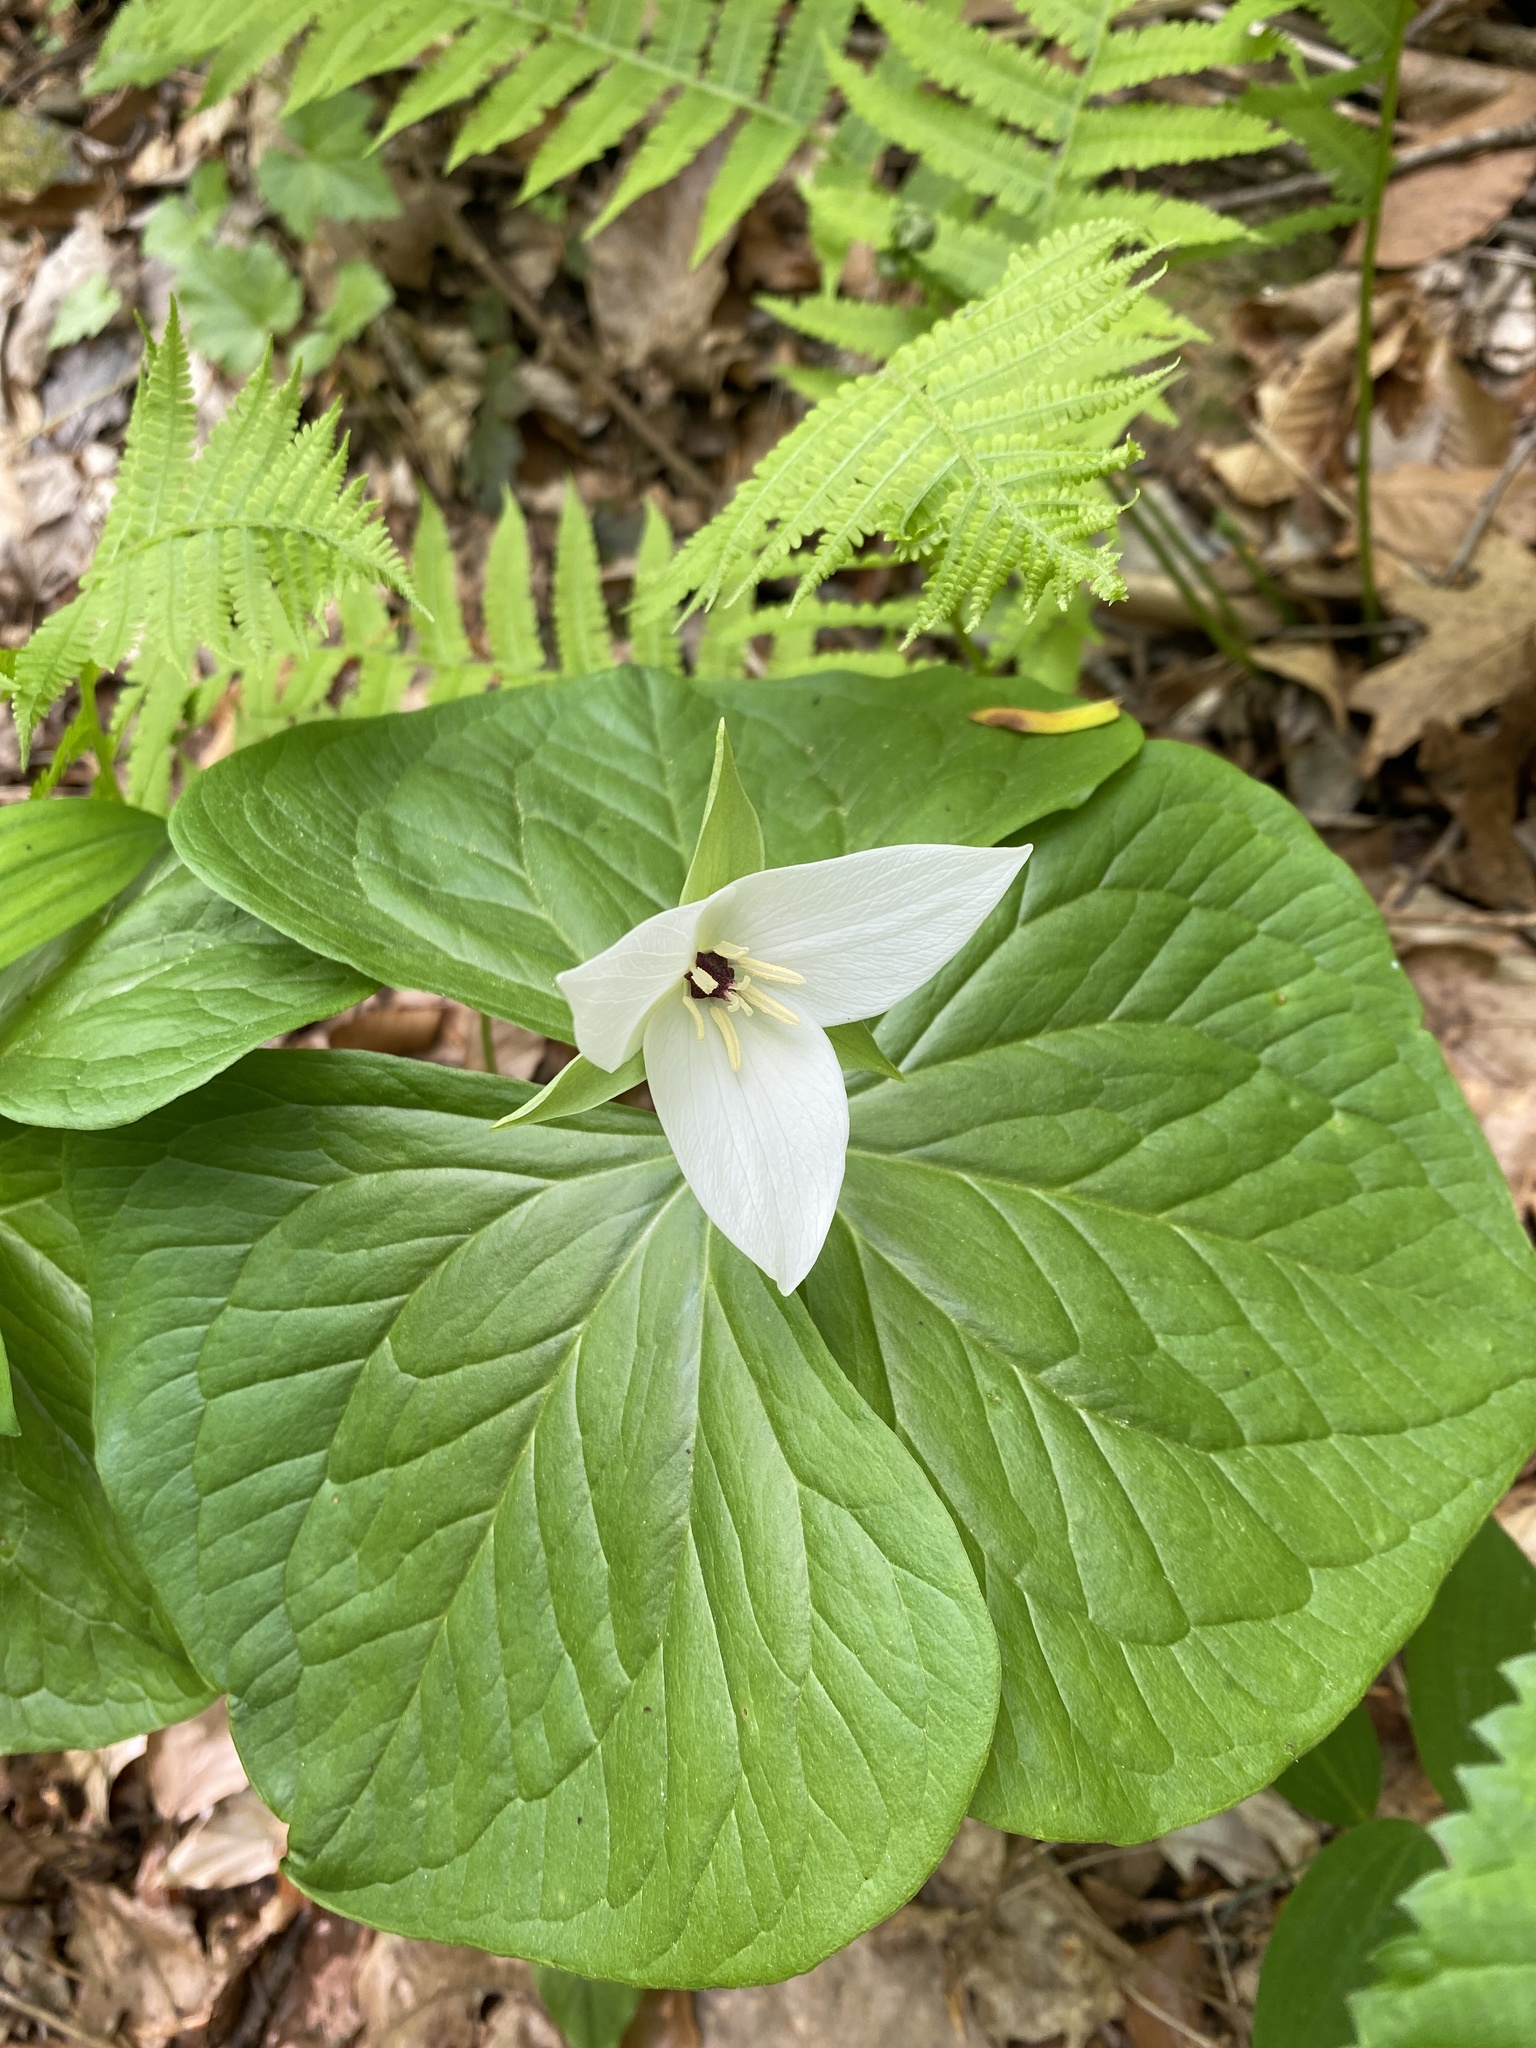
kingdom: Plantae
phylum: Tracheophyta
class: Liliopsida
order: Liliales
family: Melanthiaceae
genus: Trillium
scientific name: Trillium simile
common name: Confusing trillium
